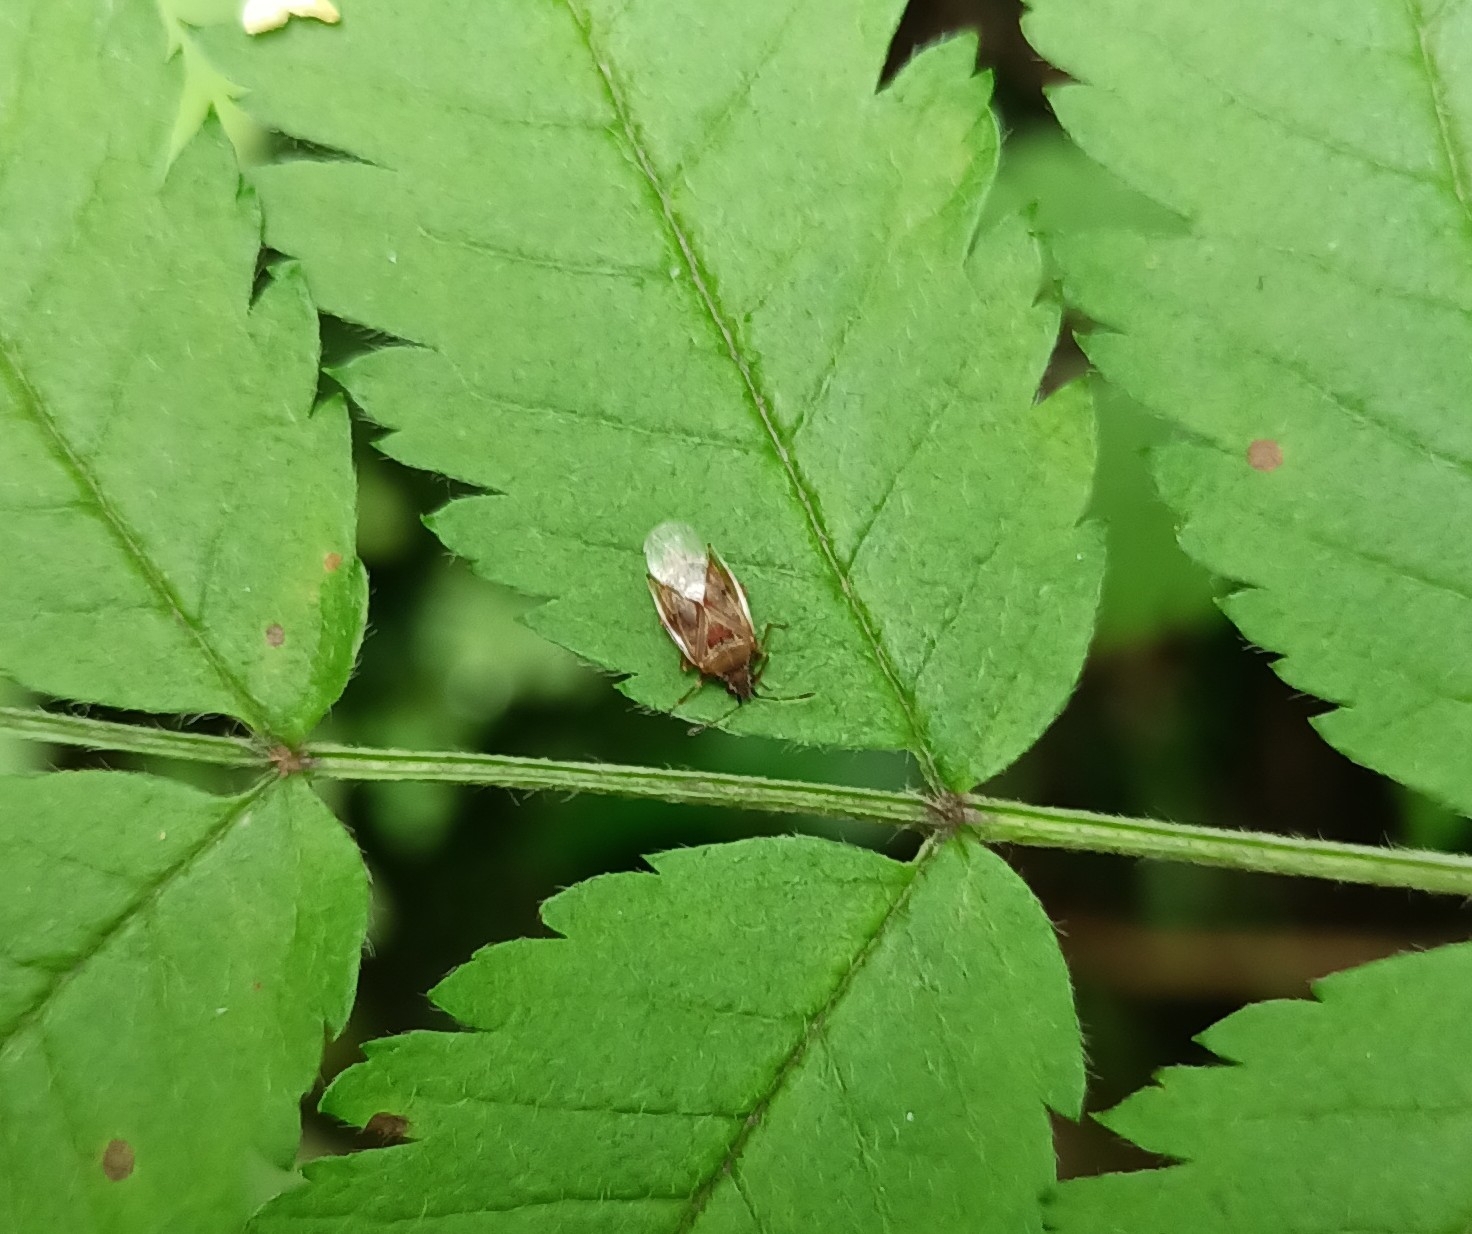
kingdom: Animalia
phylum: Arthropoda
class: Insecta
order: Hemiptera
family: Lygaeidae
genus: Kleidocerys
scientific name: Kleidocerys resedae
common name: Birch catkin bug
